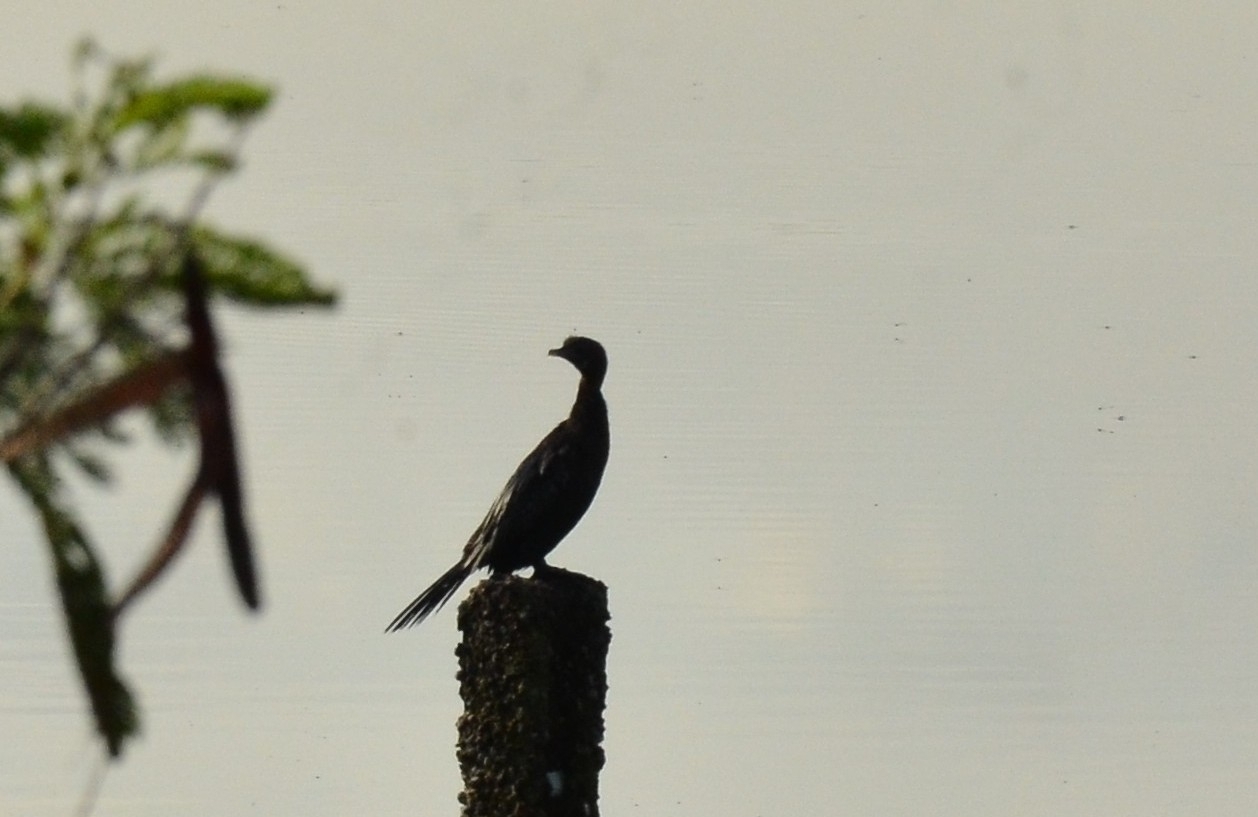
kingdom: Animalia
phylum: Chordata
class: Aves
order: Suliformes
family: Phalacrocoracidae
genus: Microcarbo
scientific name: Microcarbo niger
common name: Little cormorant
